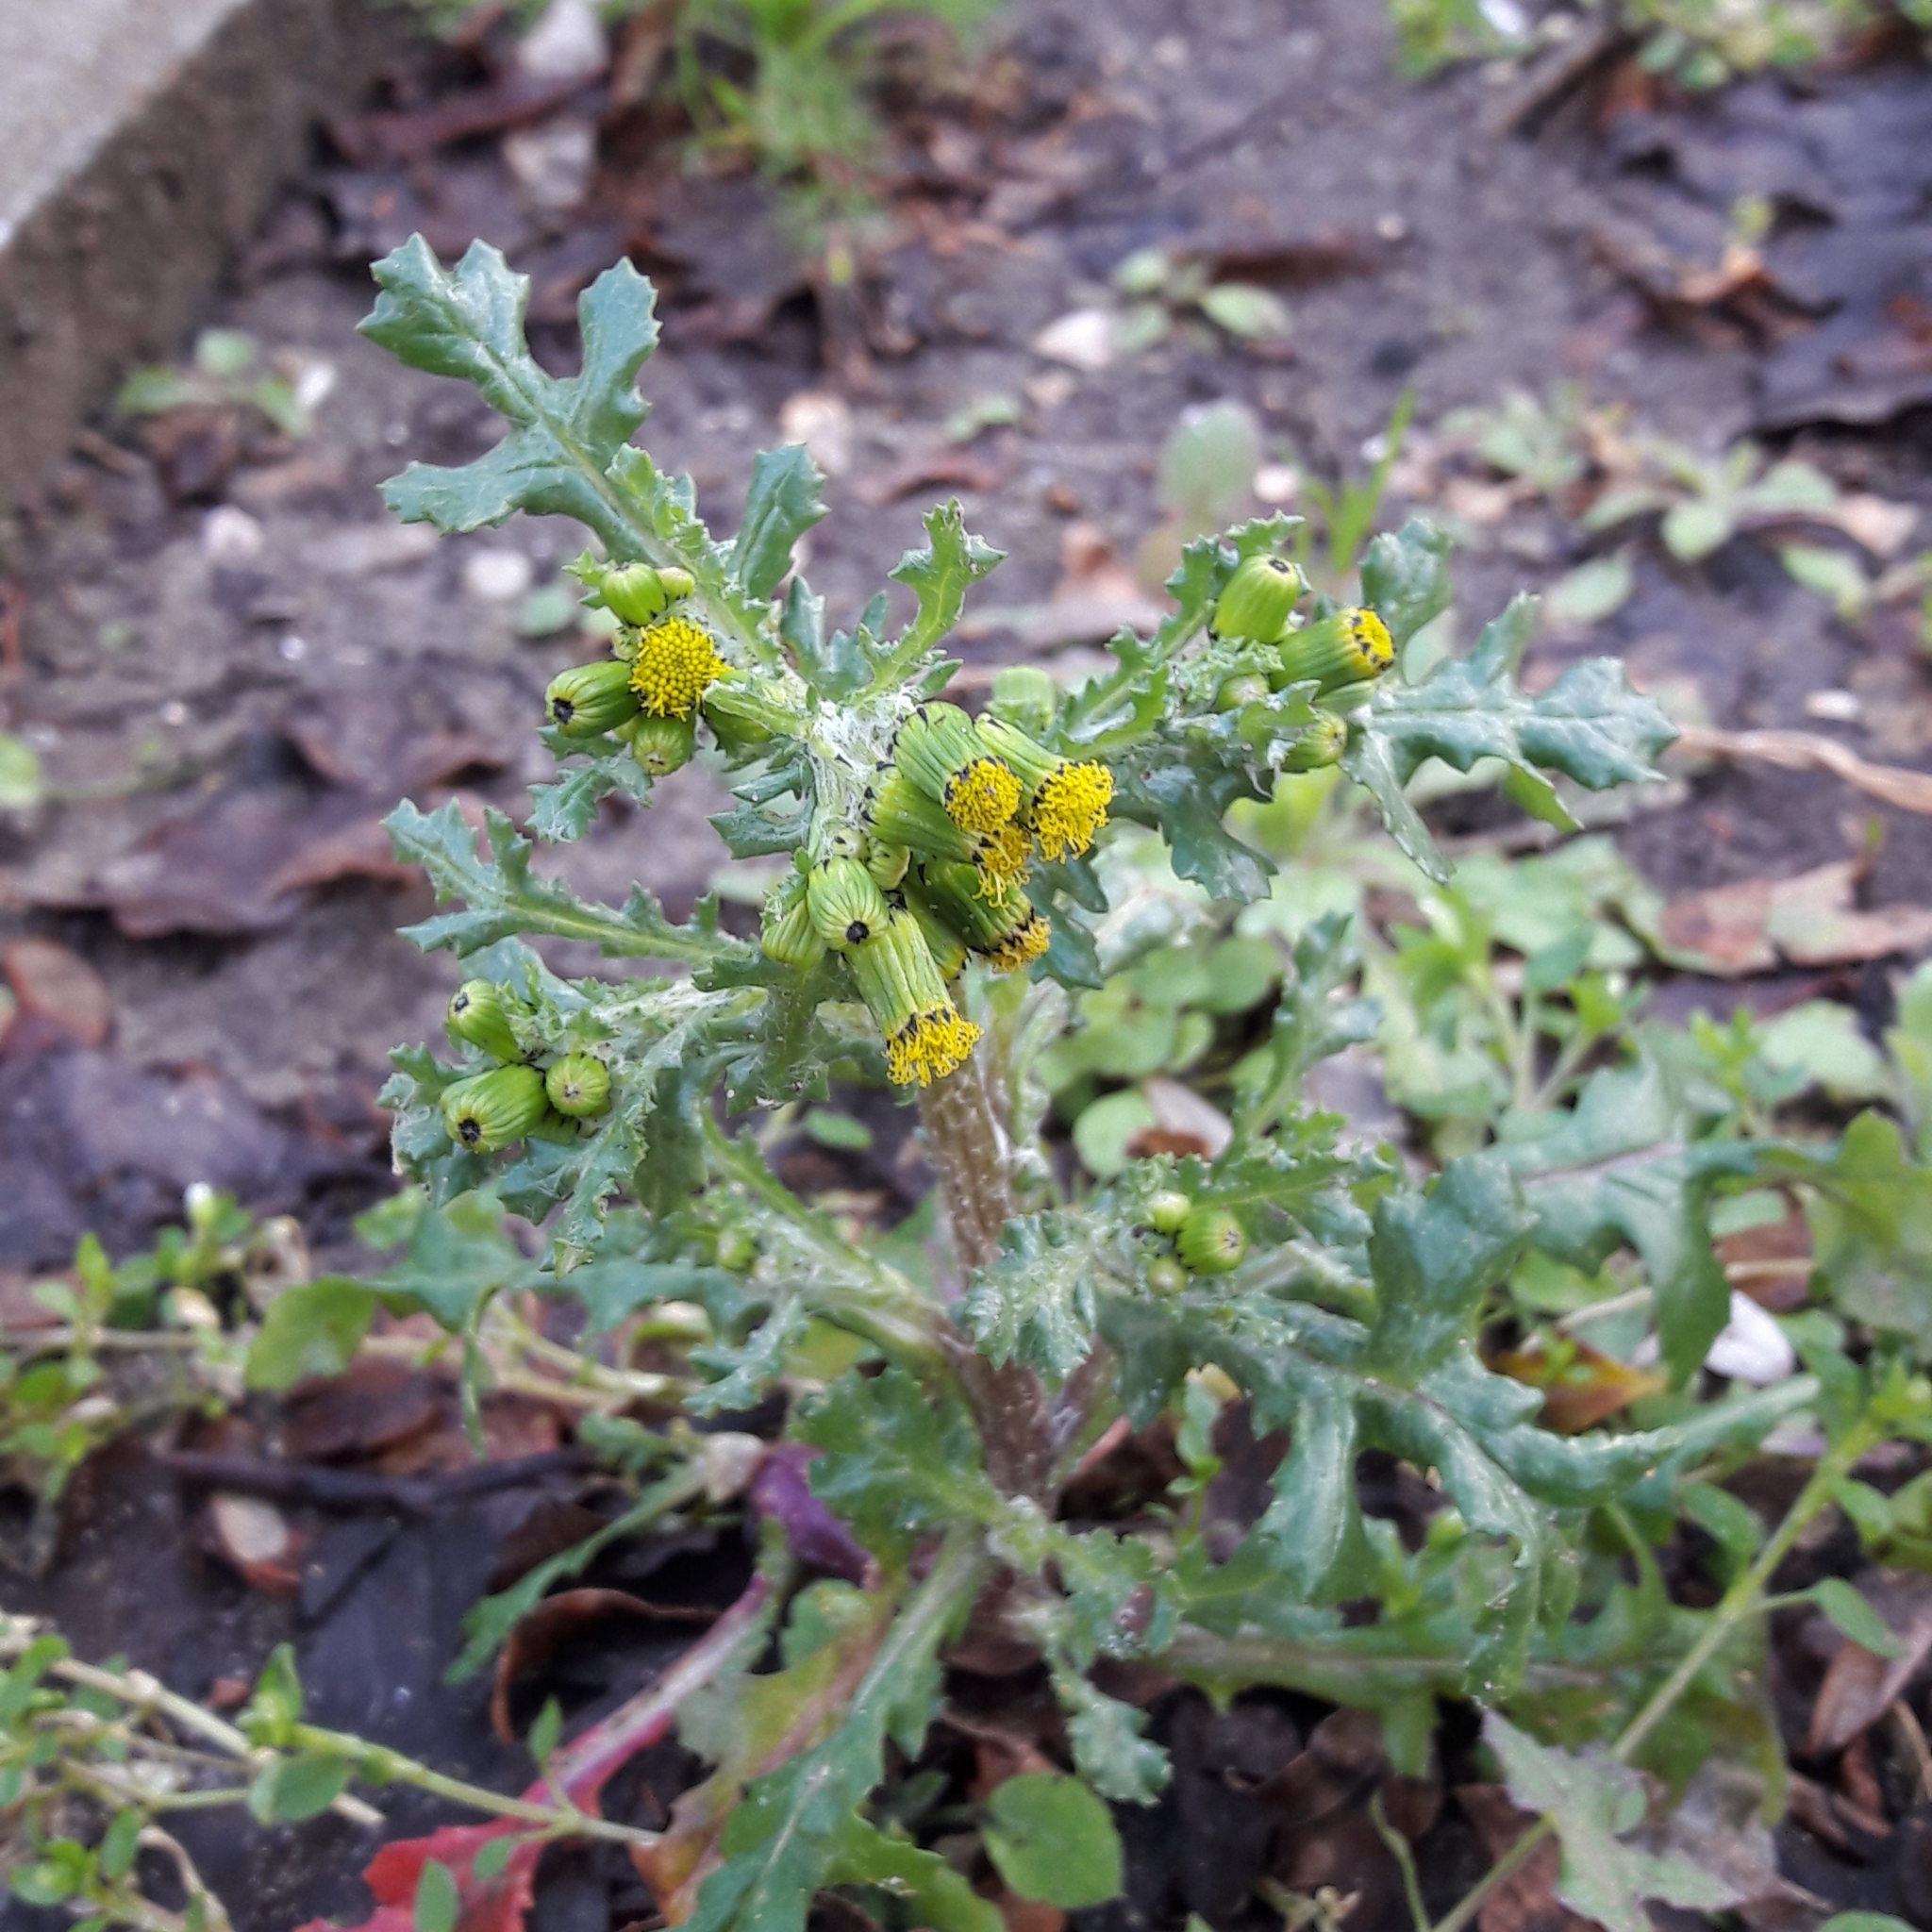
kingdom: Plantae
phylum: Tracheophyta
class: Magnoliopsida
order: Asterales
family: Asteraceae
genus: Senecio
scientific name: Senecio vulgaris
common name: Old-man-in-the-spring
